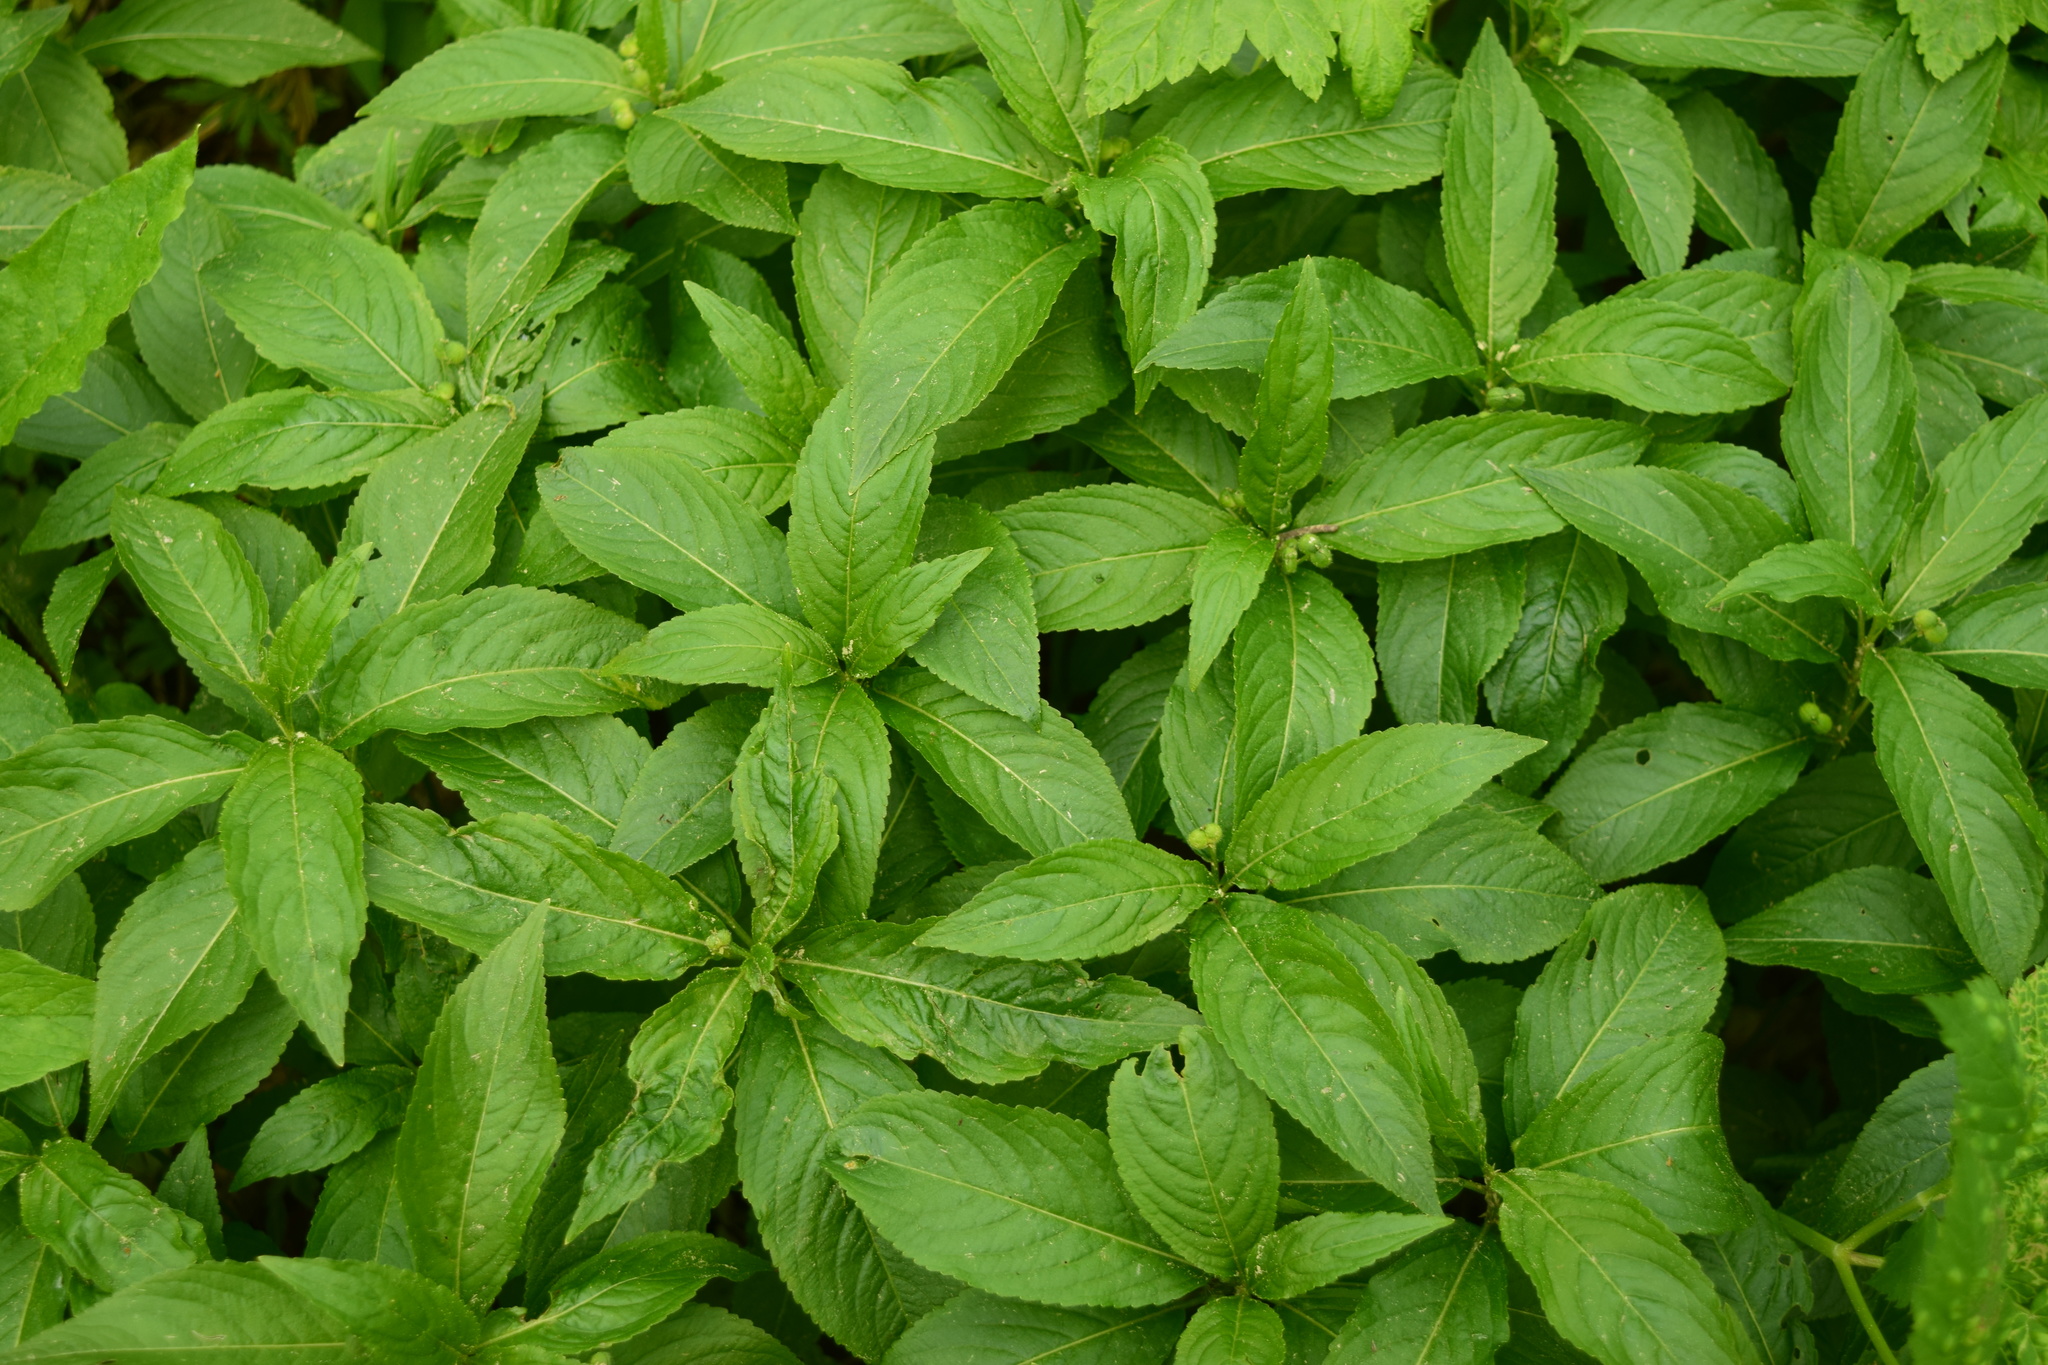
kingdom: Plantae
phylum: Tracheophyta
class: Magnoliopsida
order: Malpighiales
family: Euphorbiaceae
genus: Mercurialis
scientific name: Mercurialis perennis
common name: Dog mercury
